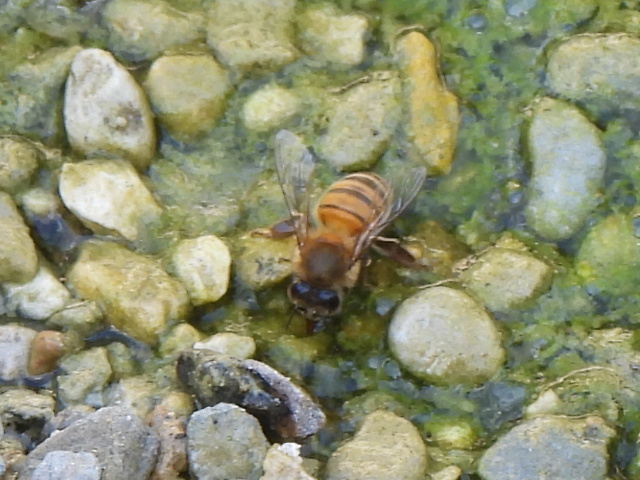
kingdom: Animalia
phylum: Arthropoda
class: Insecta
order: Hymenoptera
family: Apidae
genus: Apis
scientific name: Apis mellifera
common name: Honey bee
